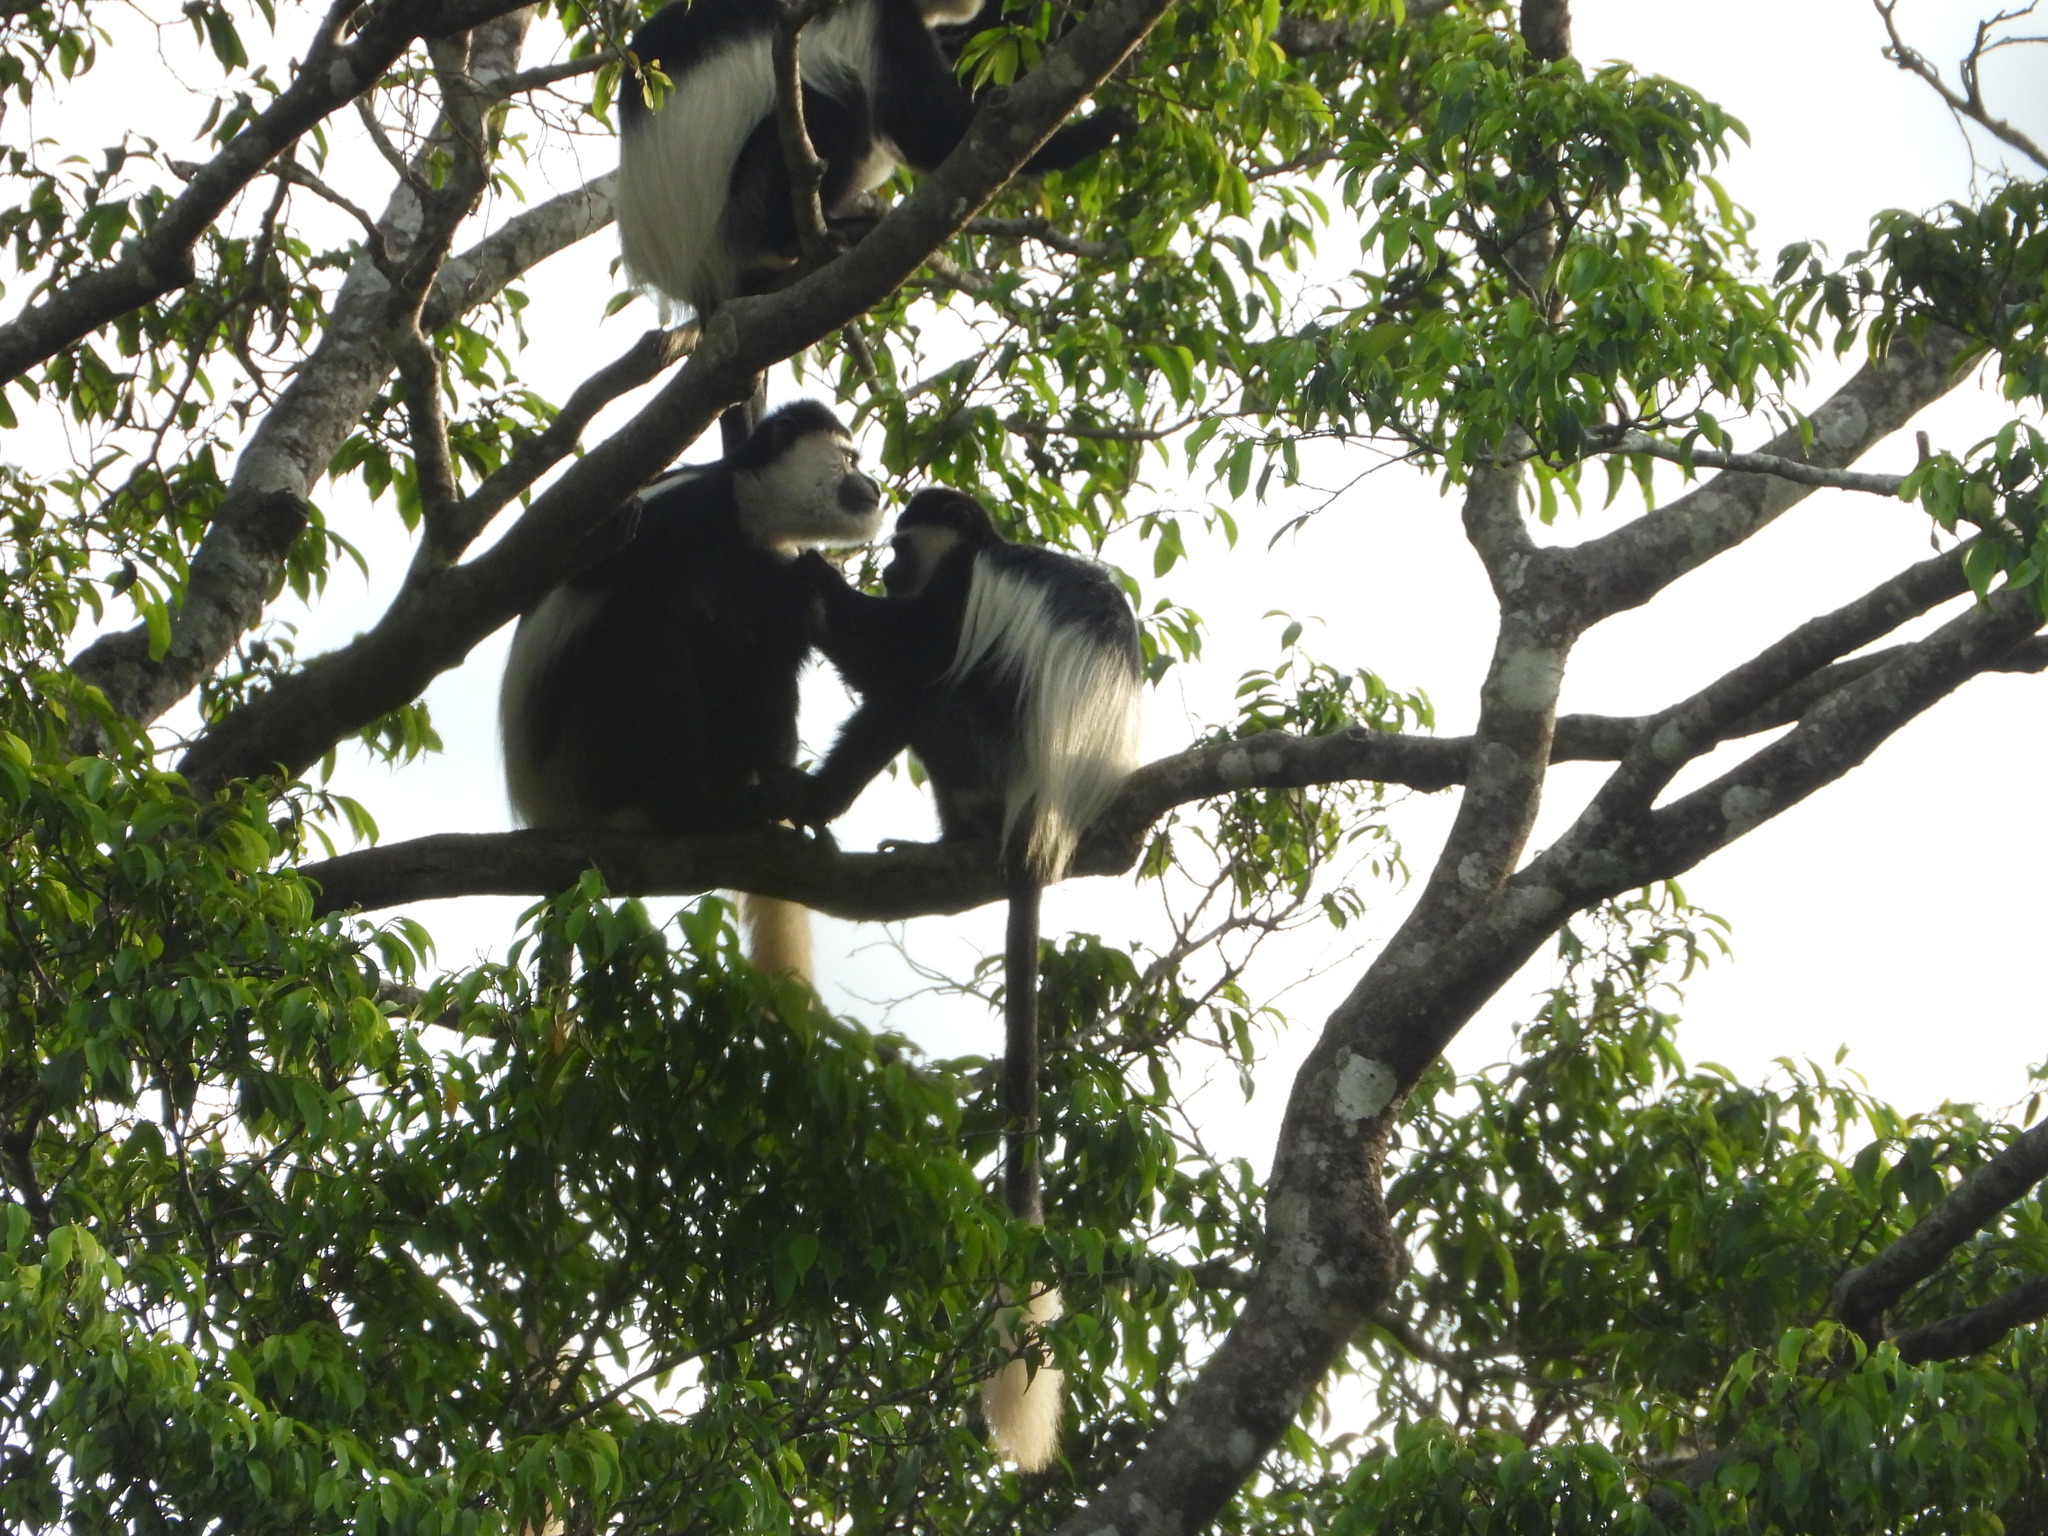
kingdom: Animalia
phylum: Chordata
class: Mammalia
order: Primates
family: Cercopithecidae
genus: Colobus
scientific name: Colobus guereza
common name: Mantled guereza
